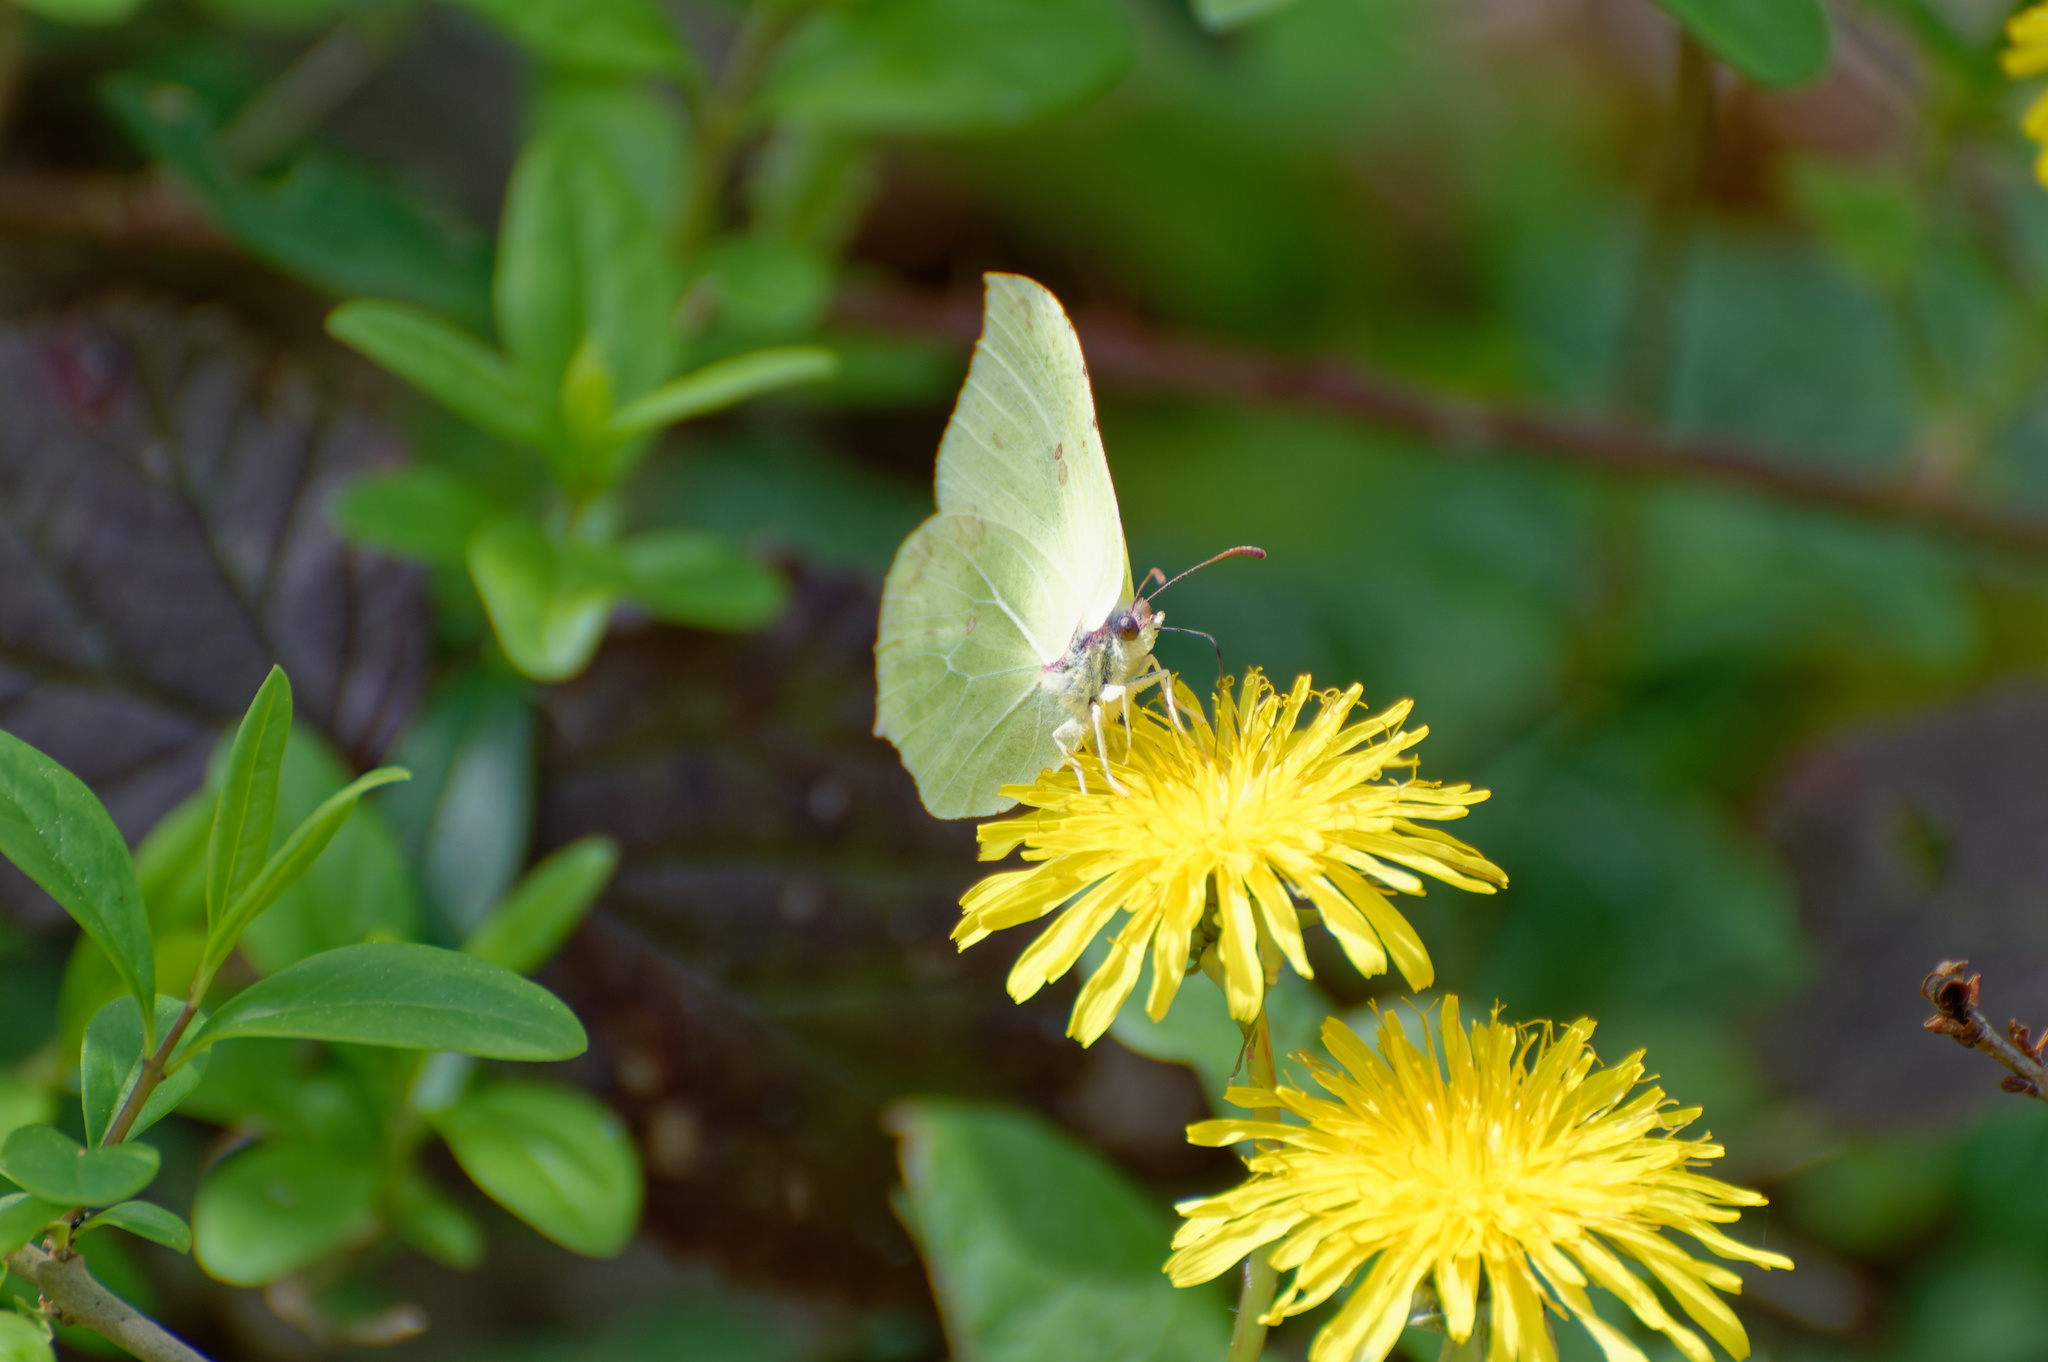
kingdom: Animalia
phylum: Arthropoda
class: Insecta
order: Lepidoptera
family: Pieridae
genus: Gonepteryx
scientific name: Gonepteryx rhamni
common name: Brimstone
